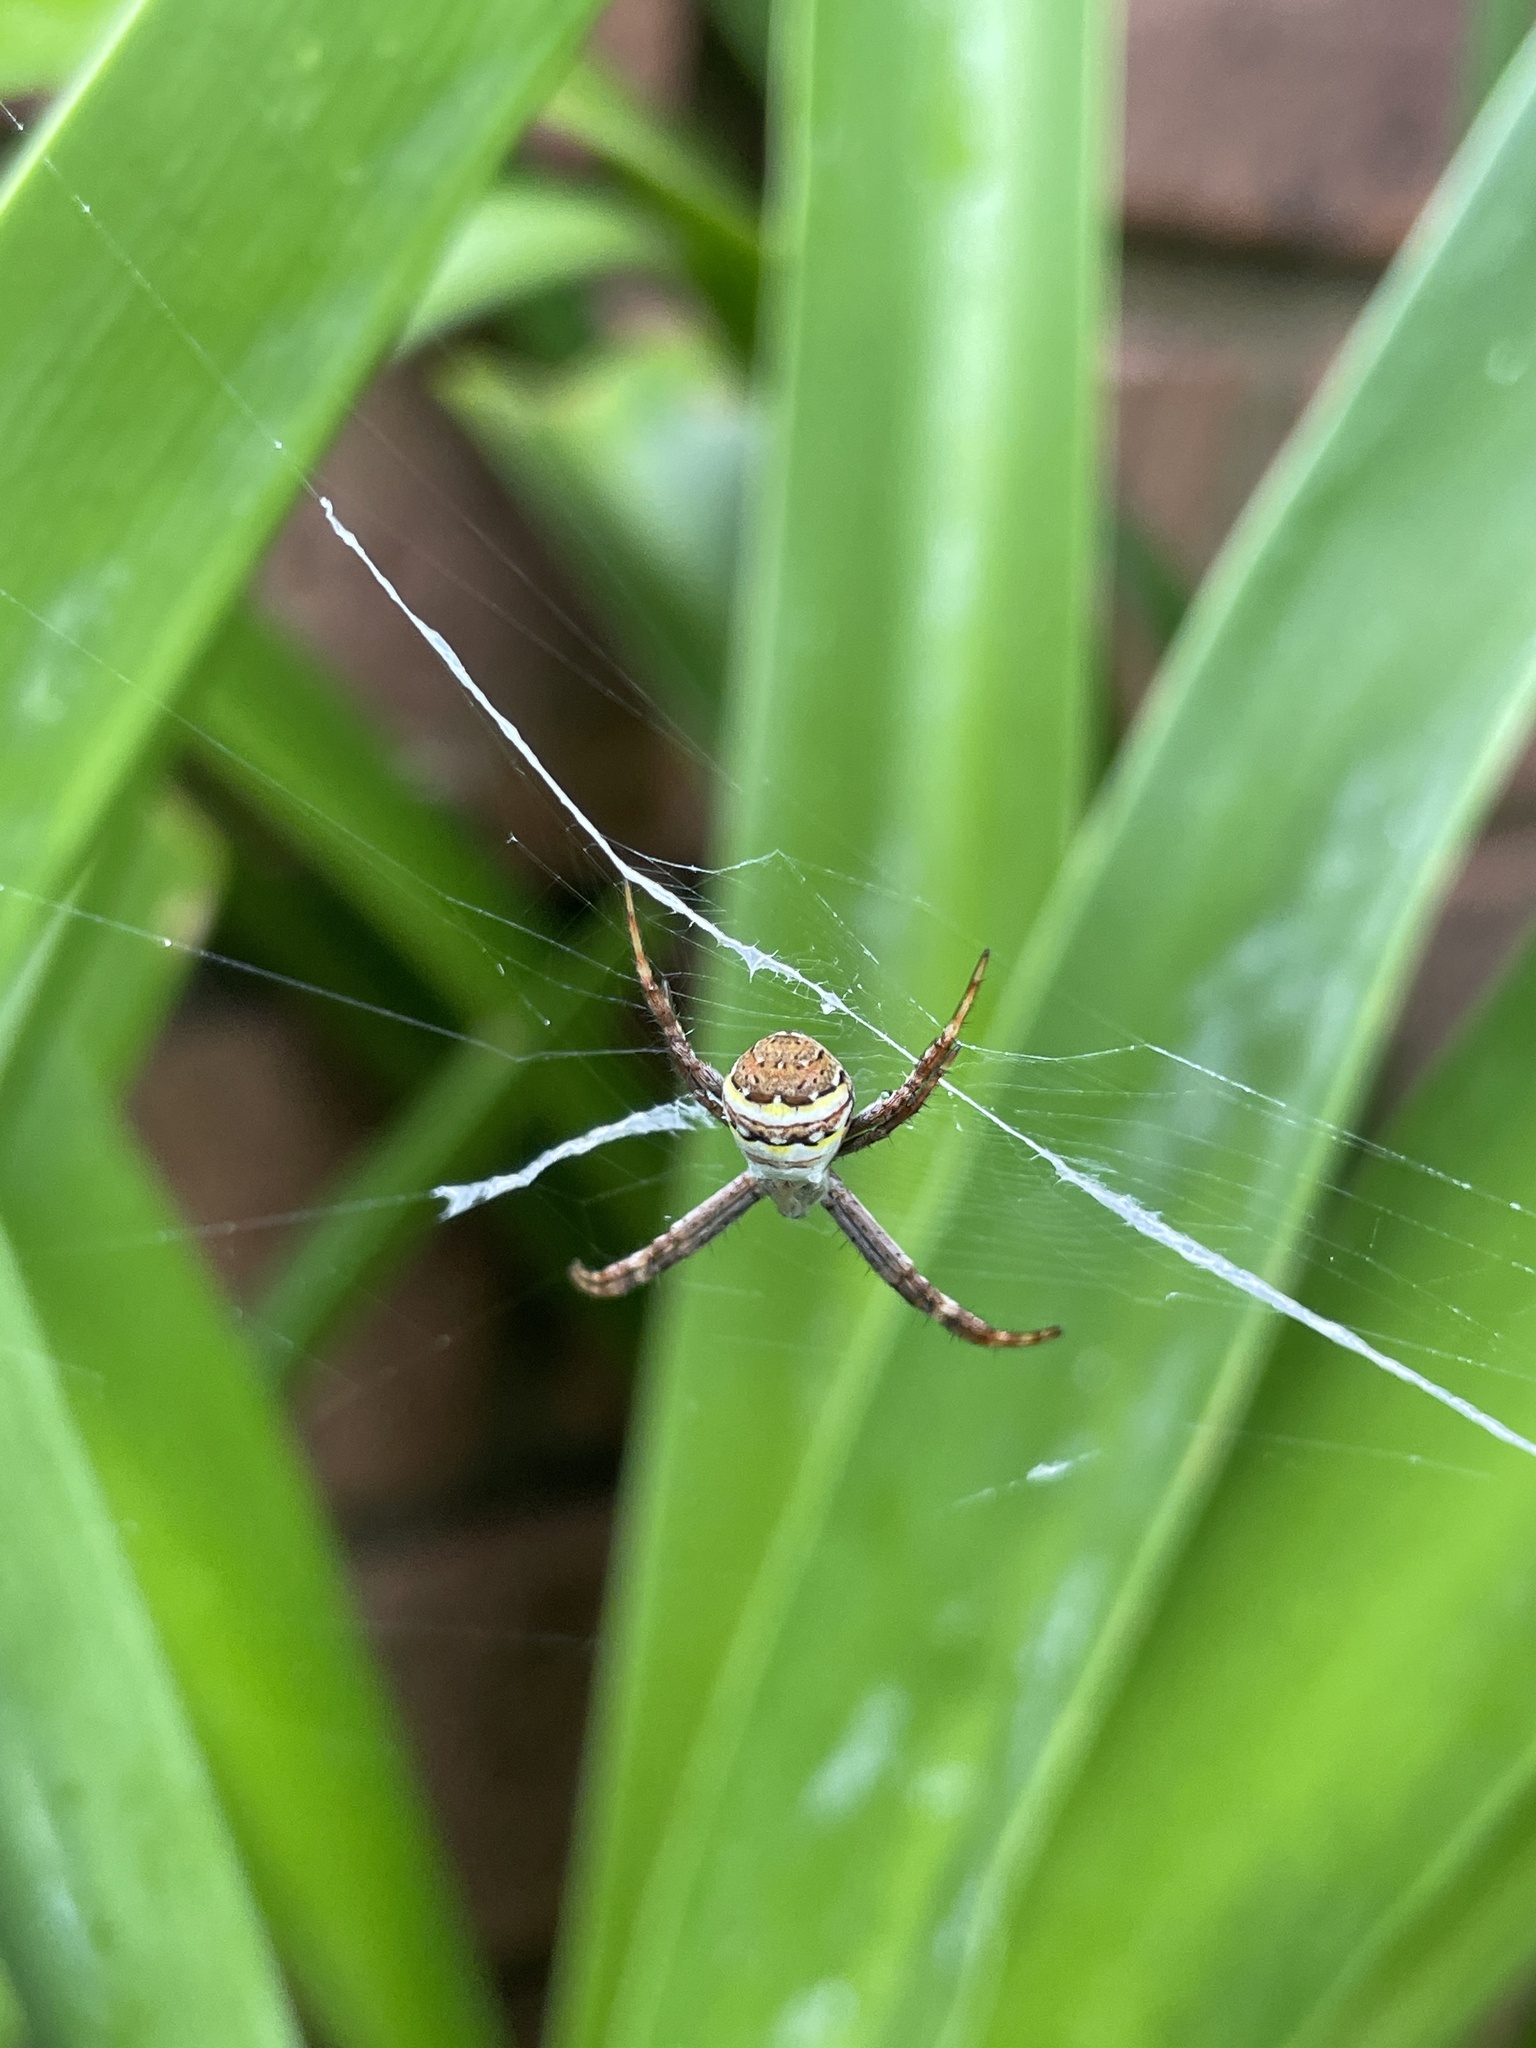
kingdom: Animalia
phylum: Arthropoda
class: Arachnida
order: Araneae
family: Araneidae
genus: Argiope
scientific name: Argiope keyserlingi
